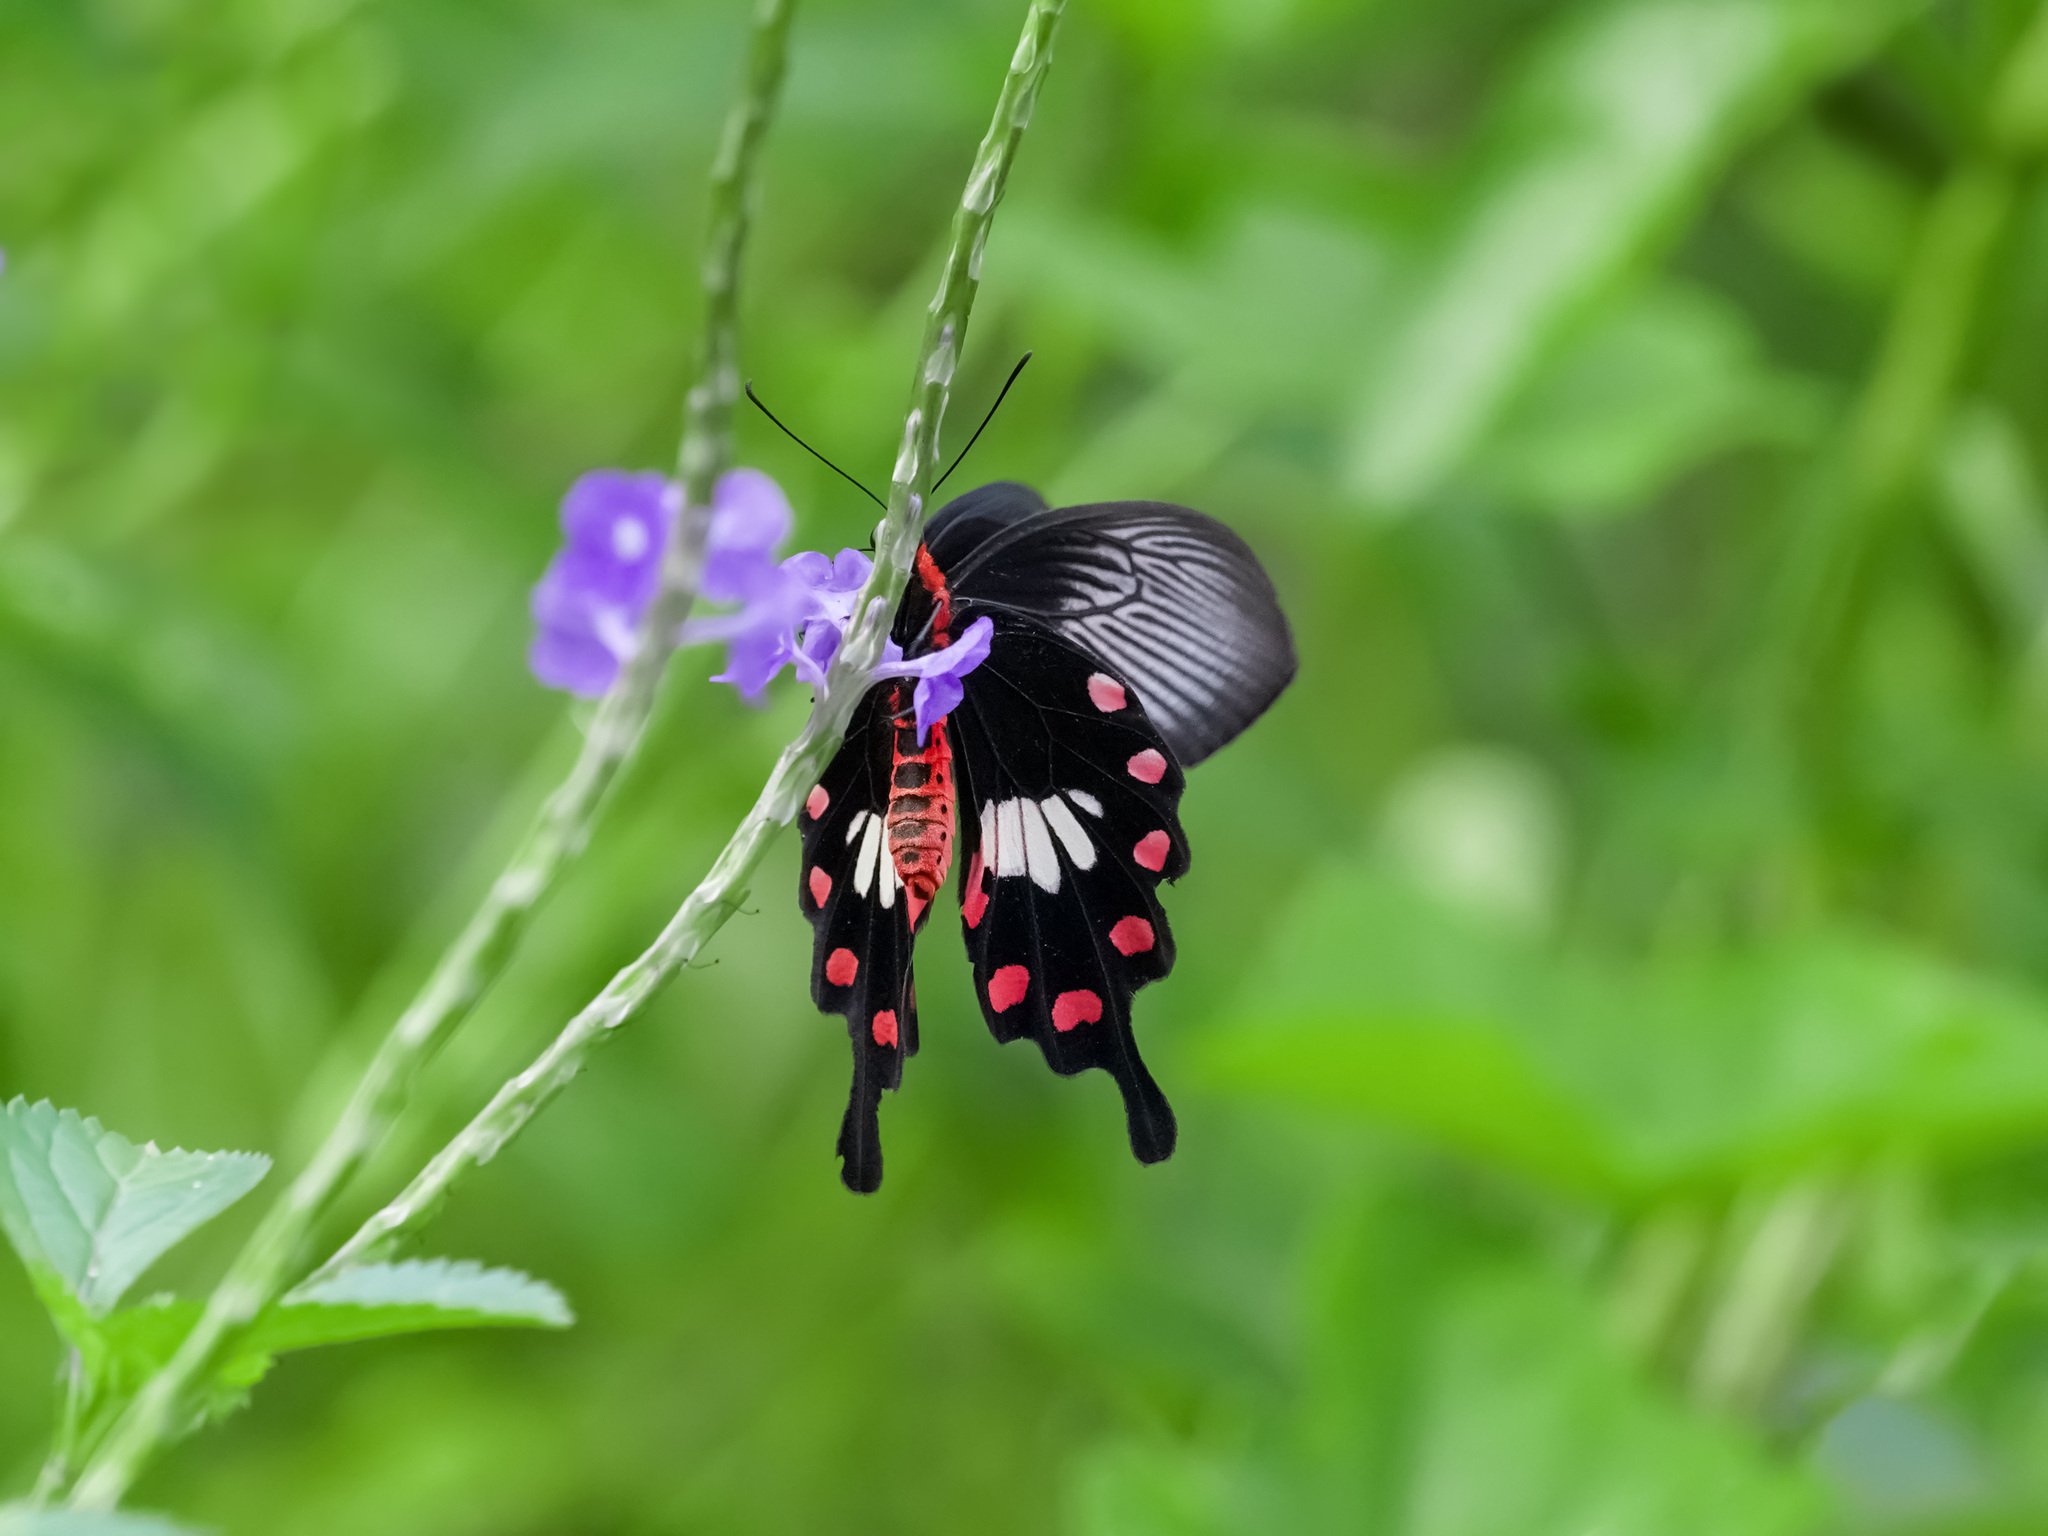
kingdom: Animalia
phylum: Arthropoda
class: Insecta
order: Lepidoptera
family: Papilionidae
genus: Pachliopta
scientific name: Pachliopta aristolochiae
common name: Common rose
